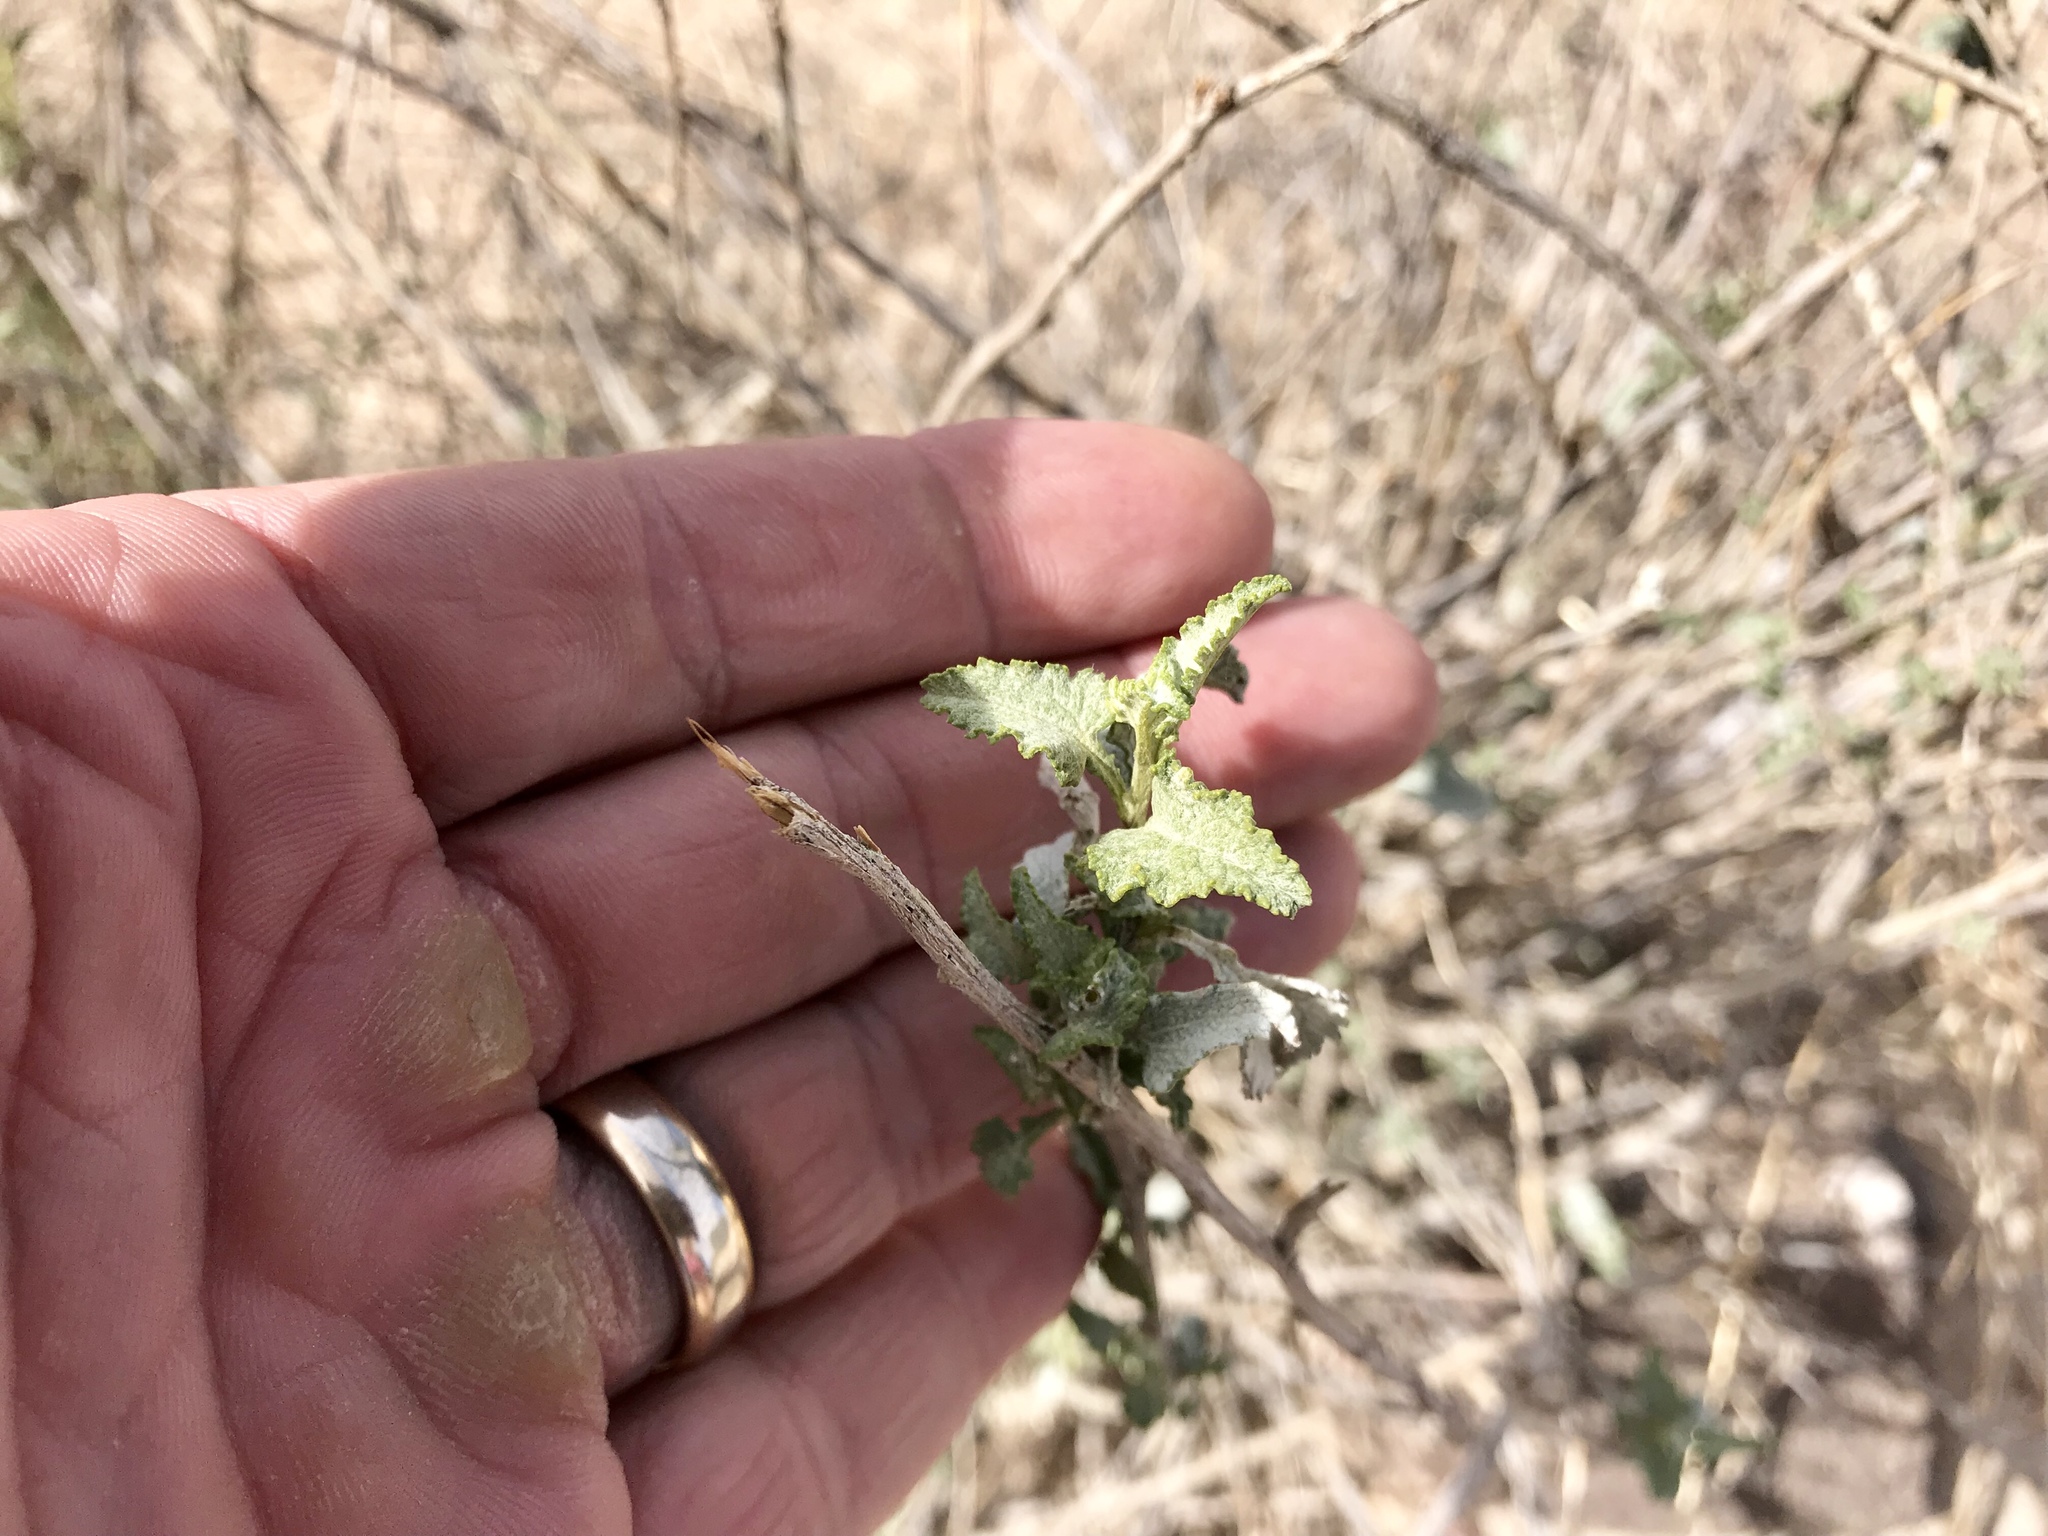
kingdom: Plantae
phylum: Tracheophyta
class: Magnoliopsida
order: Asterales
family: Asteraceae
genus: Ambrosia
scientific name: Ambrosia deltoidea
